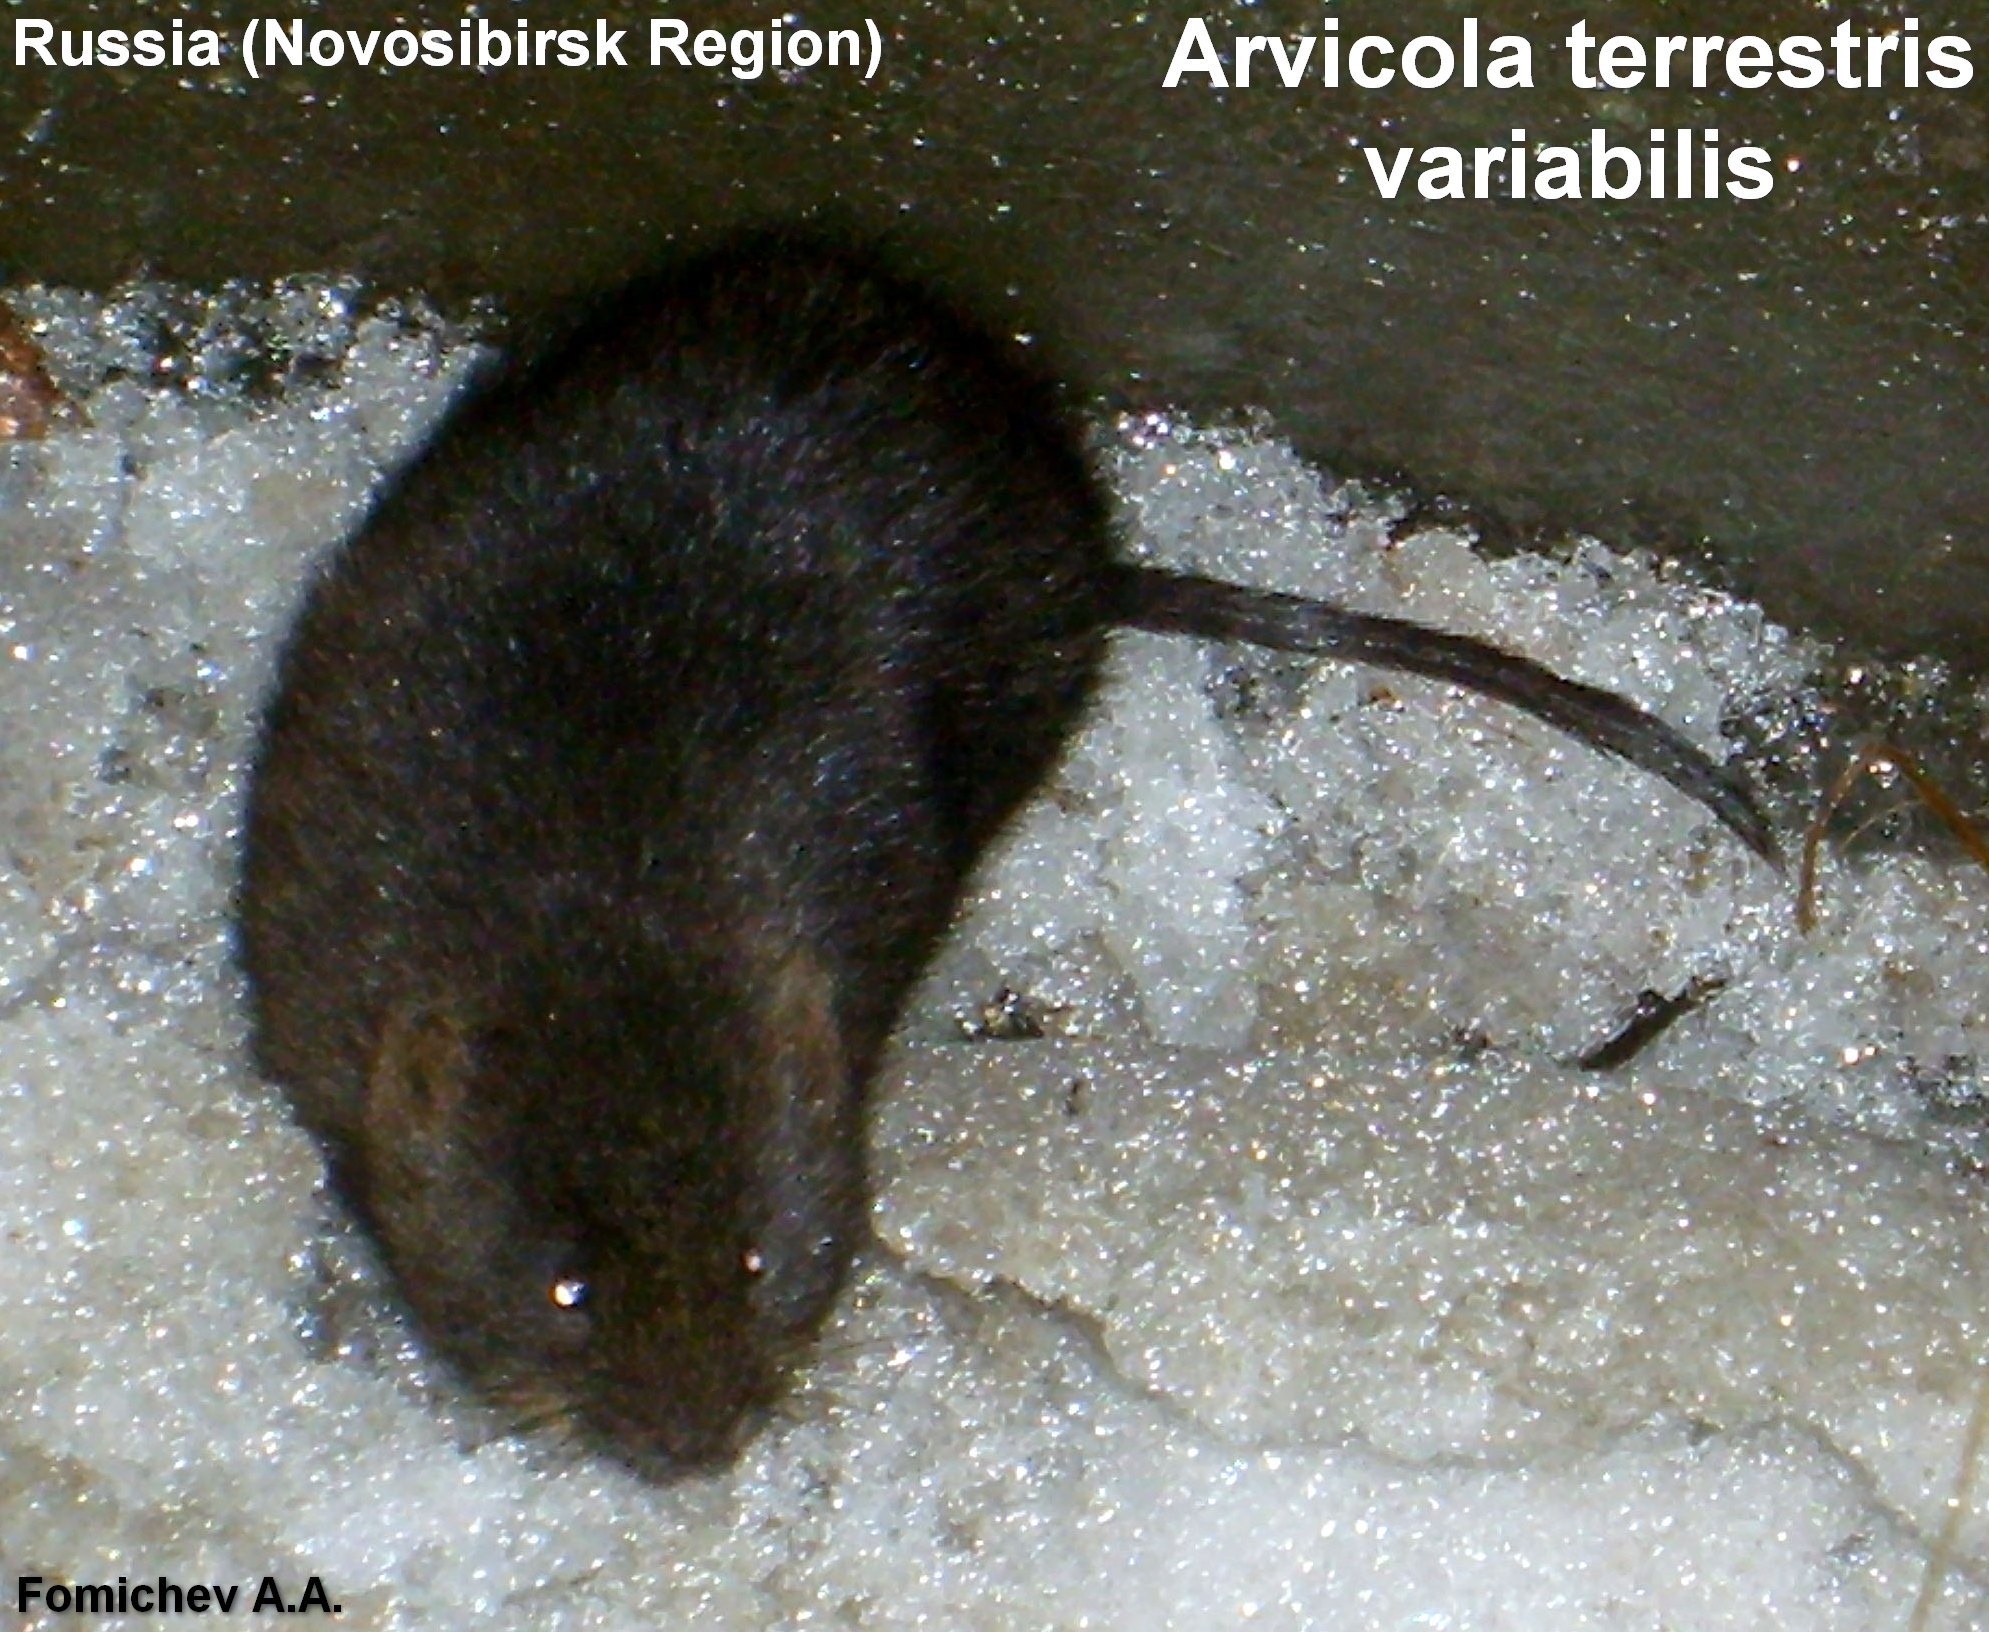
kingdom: Animalia
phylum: Chordata
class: Mammalia
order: Rodentia
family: Cricetidae
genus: Arvicola
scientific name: Arvicola amphibius
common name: European water vole
